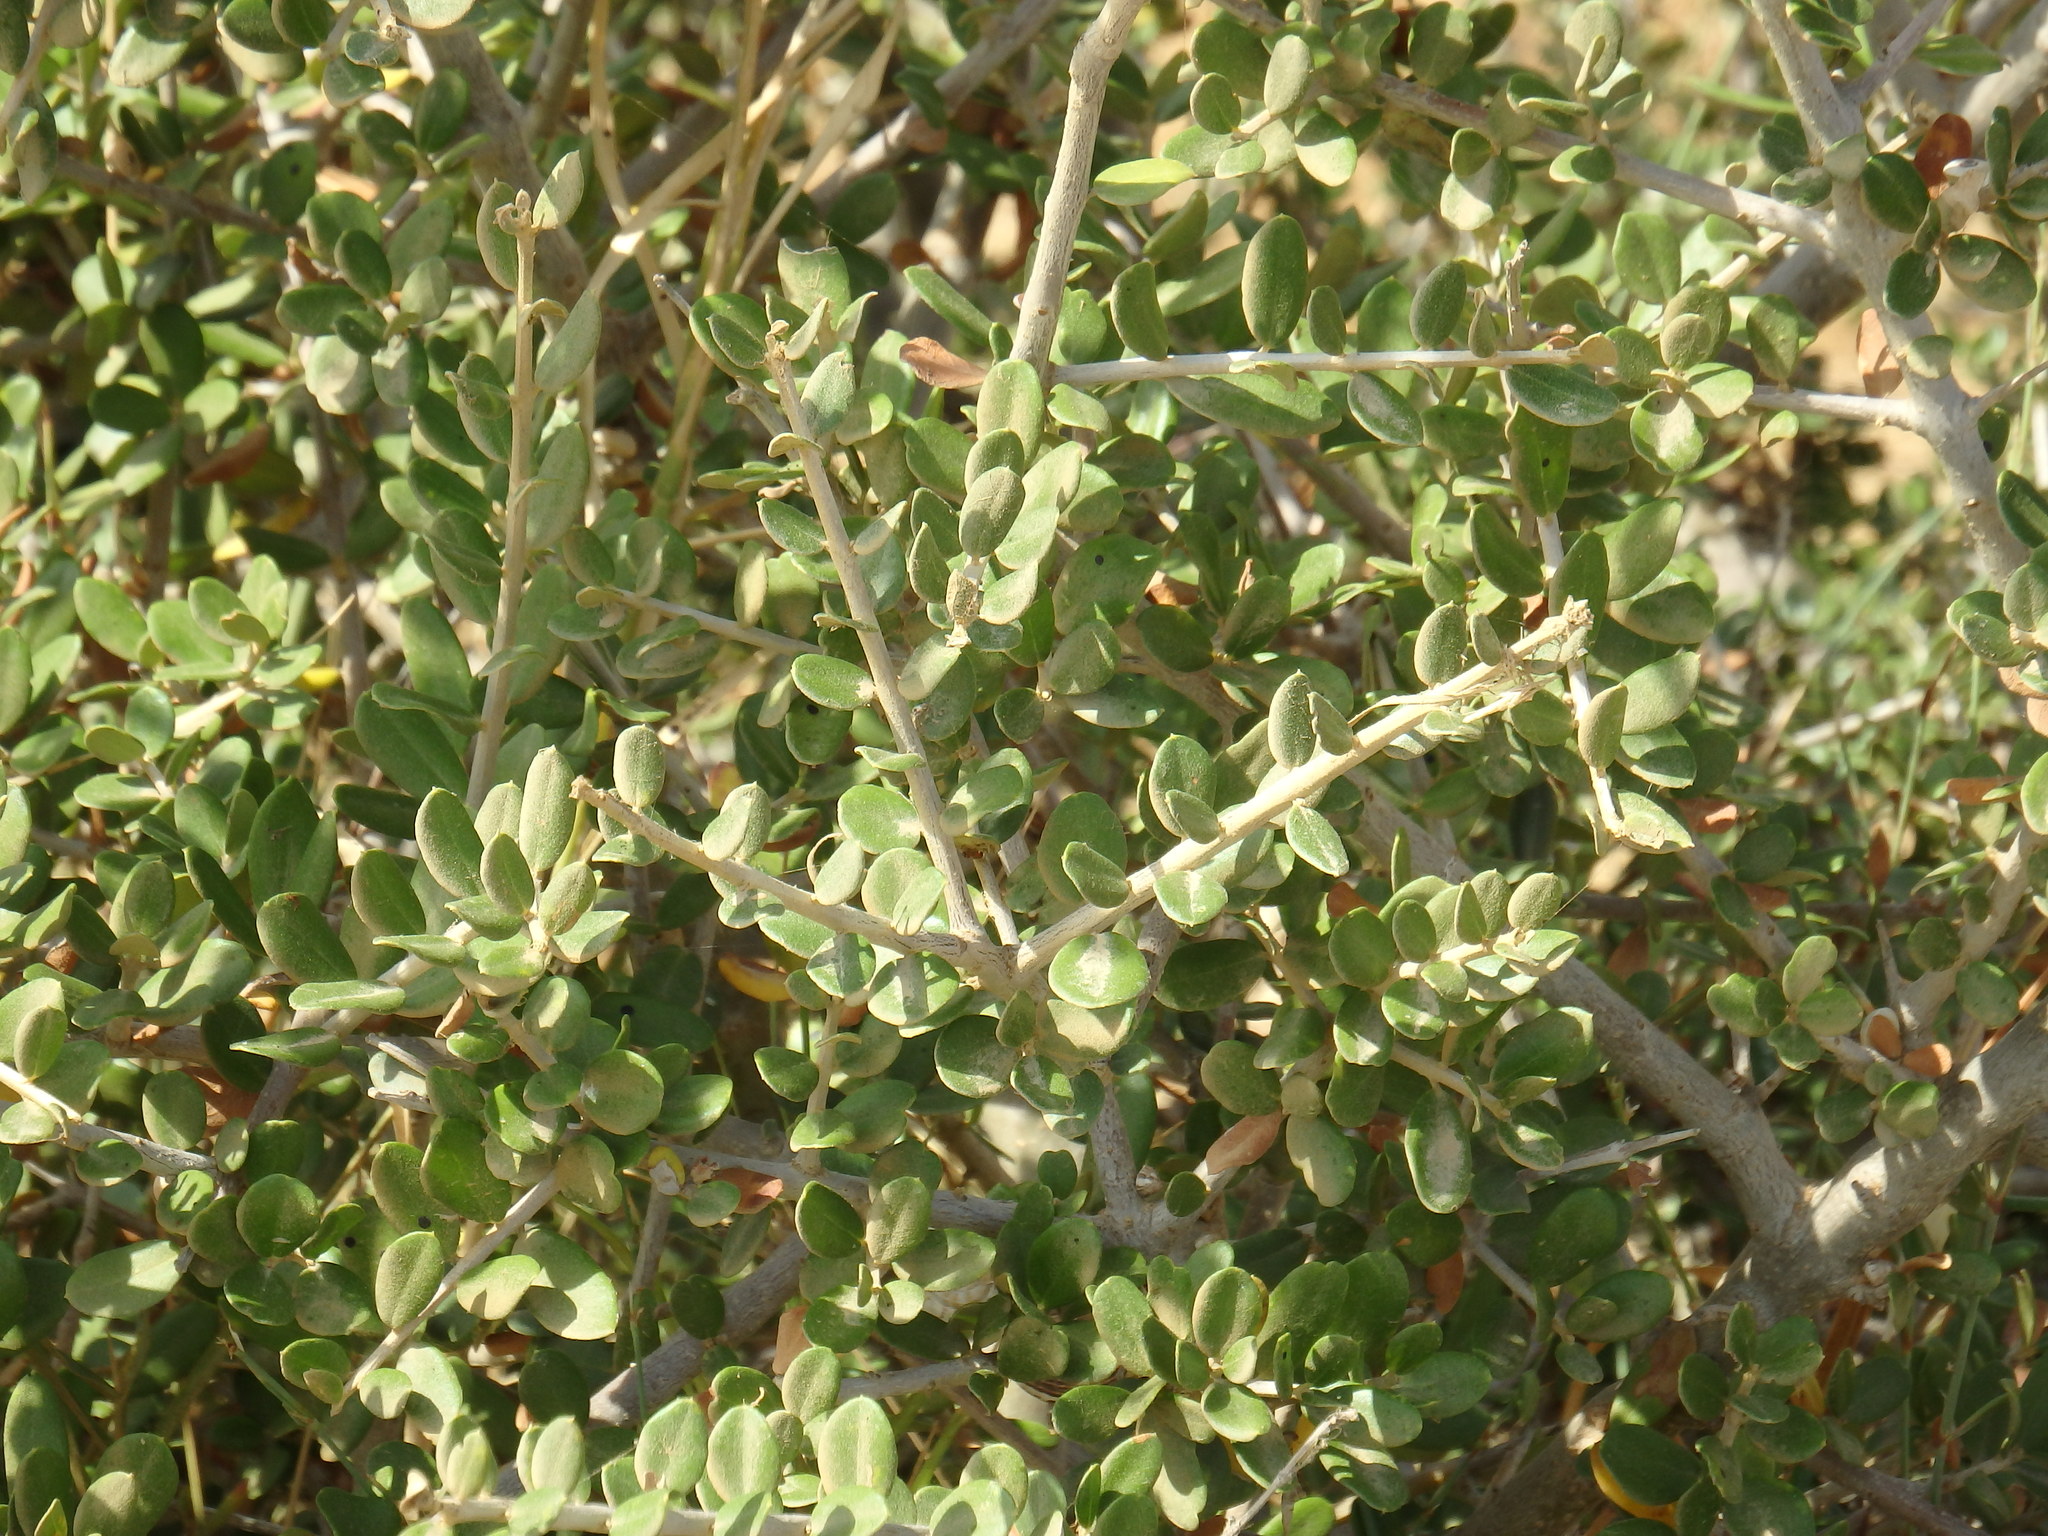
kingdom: Plantae
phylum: Tracheophyta
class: Magnoliopsida
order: Lamiales
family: Oleaceae
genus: Olea
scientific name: Olea europaea
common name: Olive
